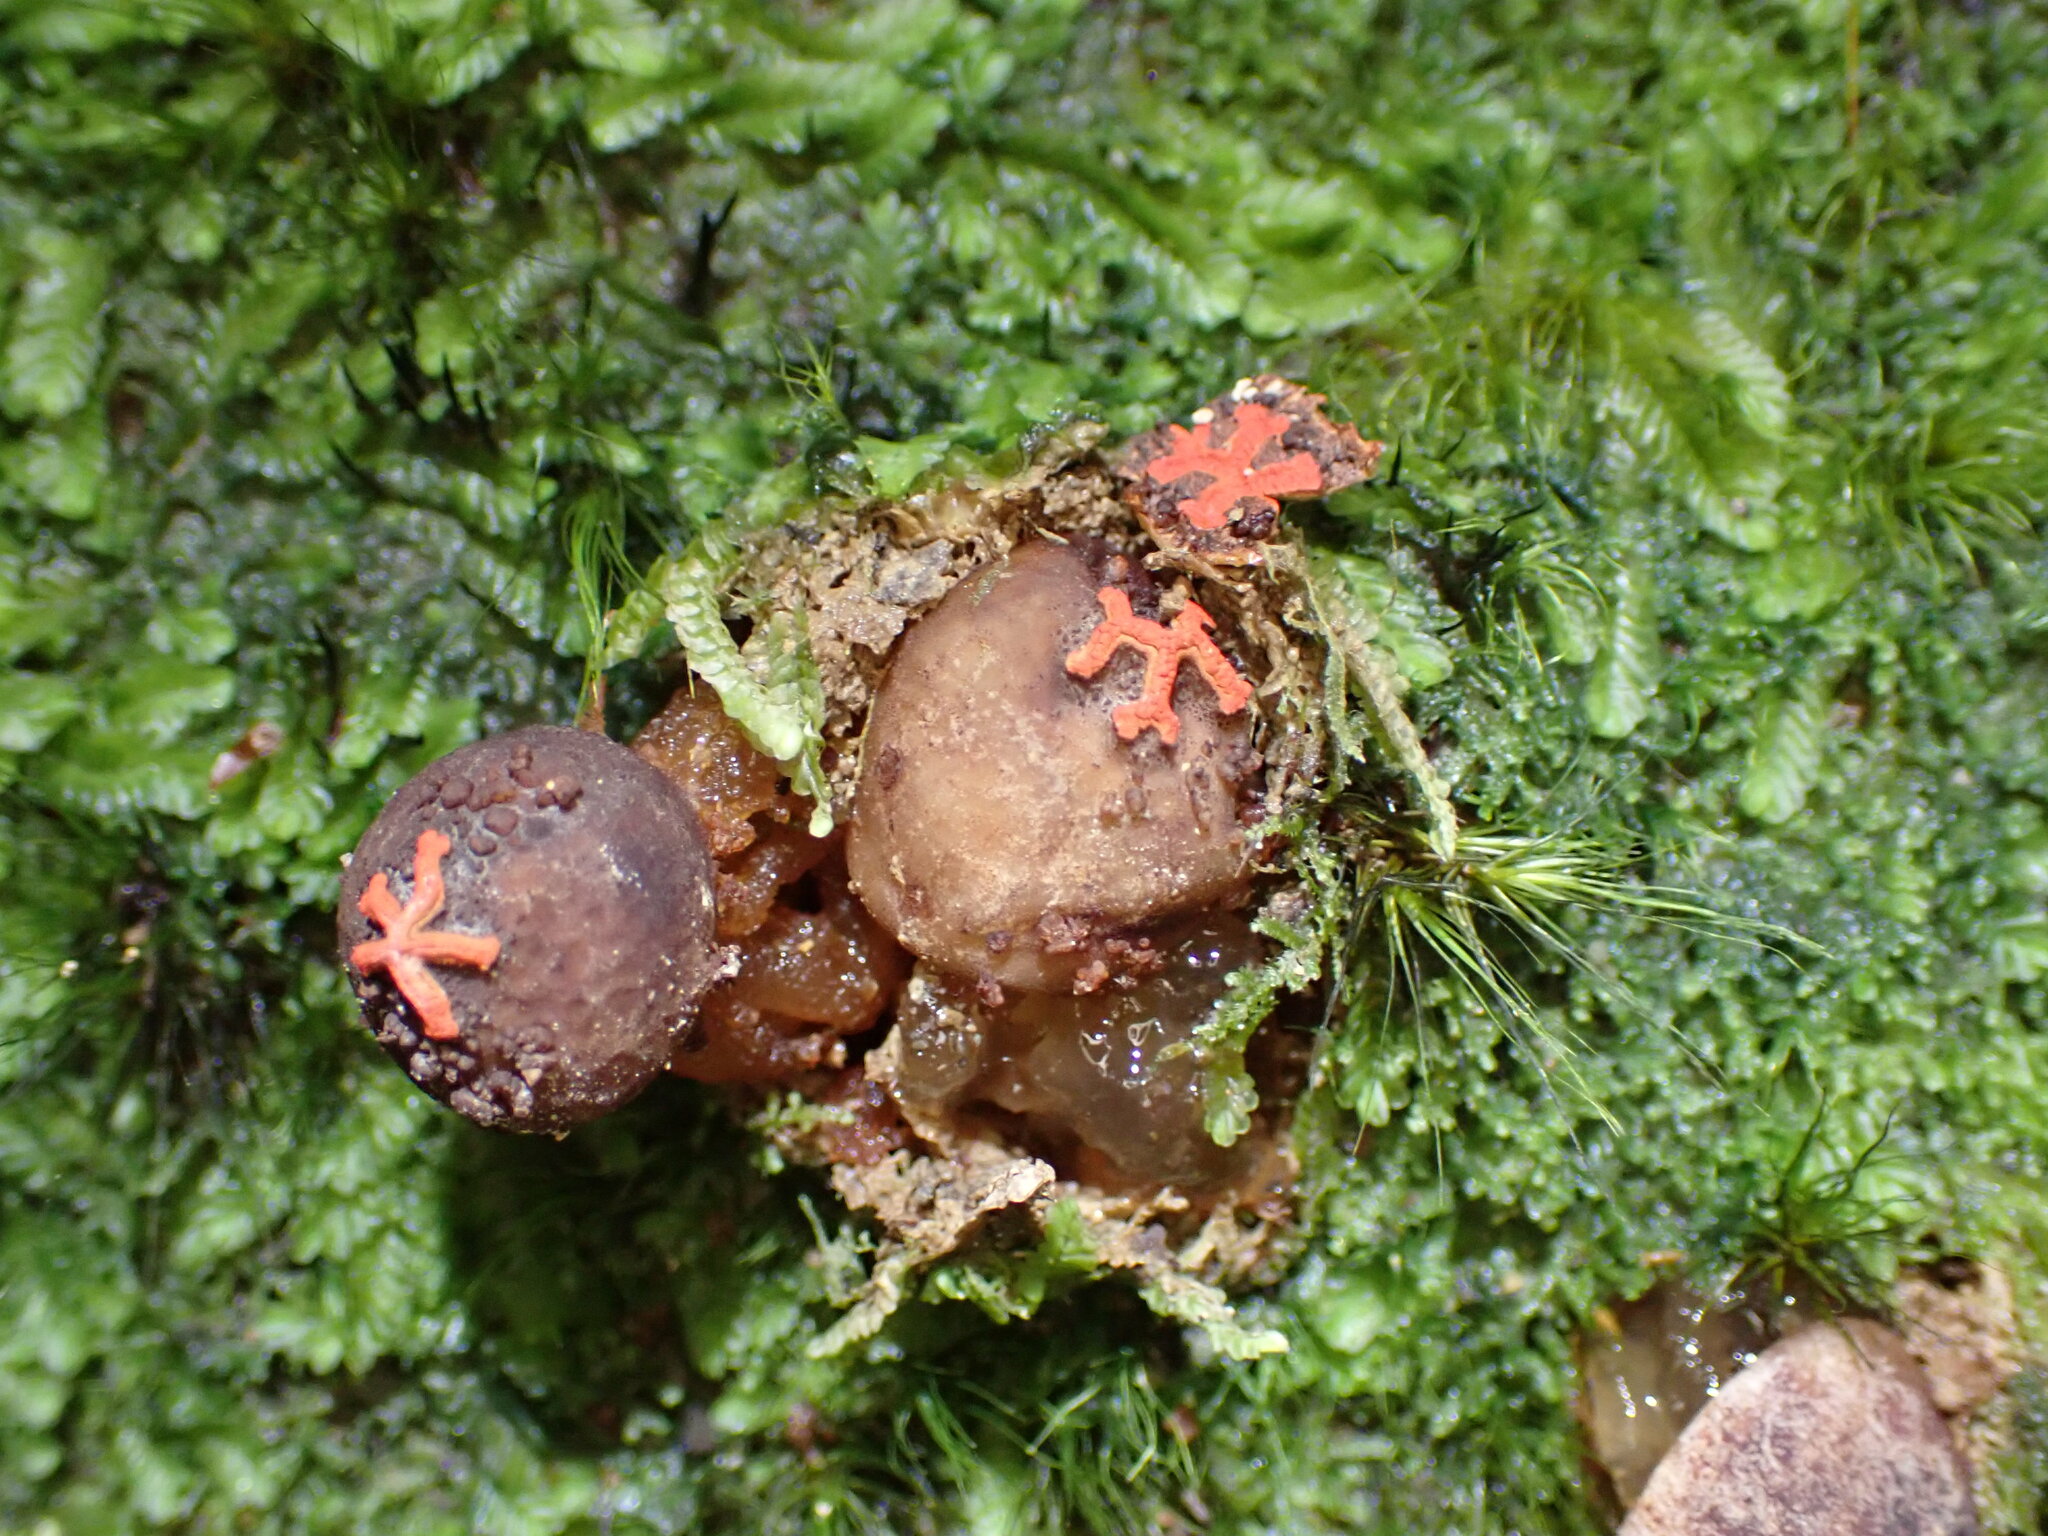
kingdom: Fungi
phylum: Basidiomycota
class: Agaricomycetes
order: Boletales
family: Calostomataceae
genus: Calostoma
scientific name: Calostoma rodwayi
